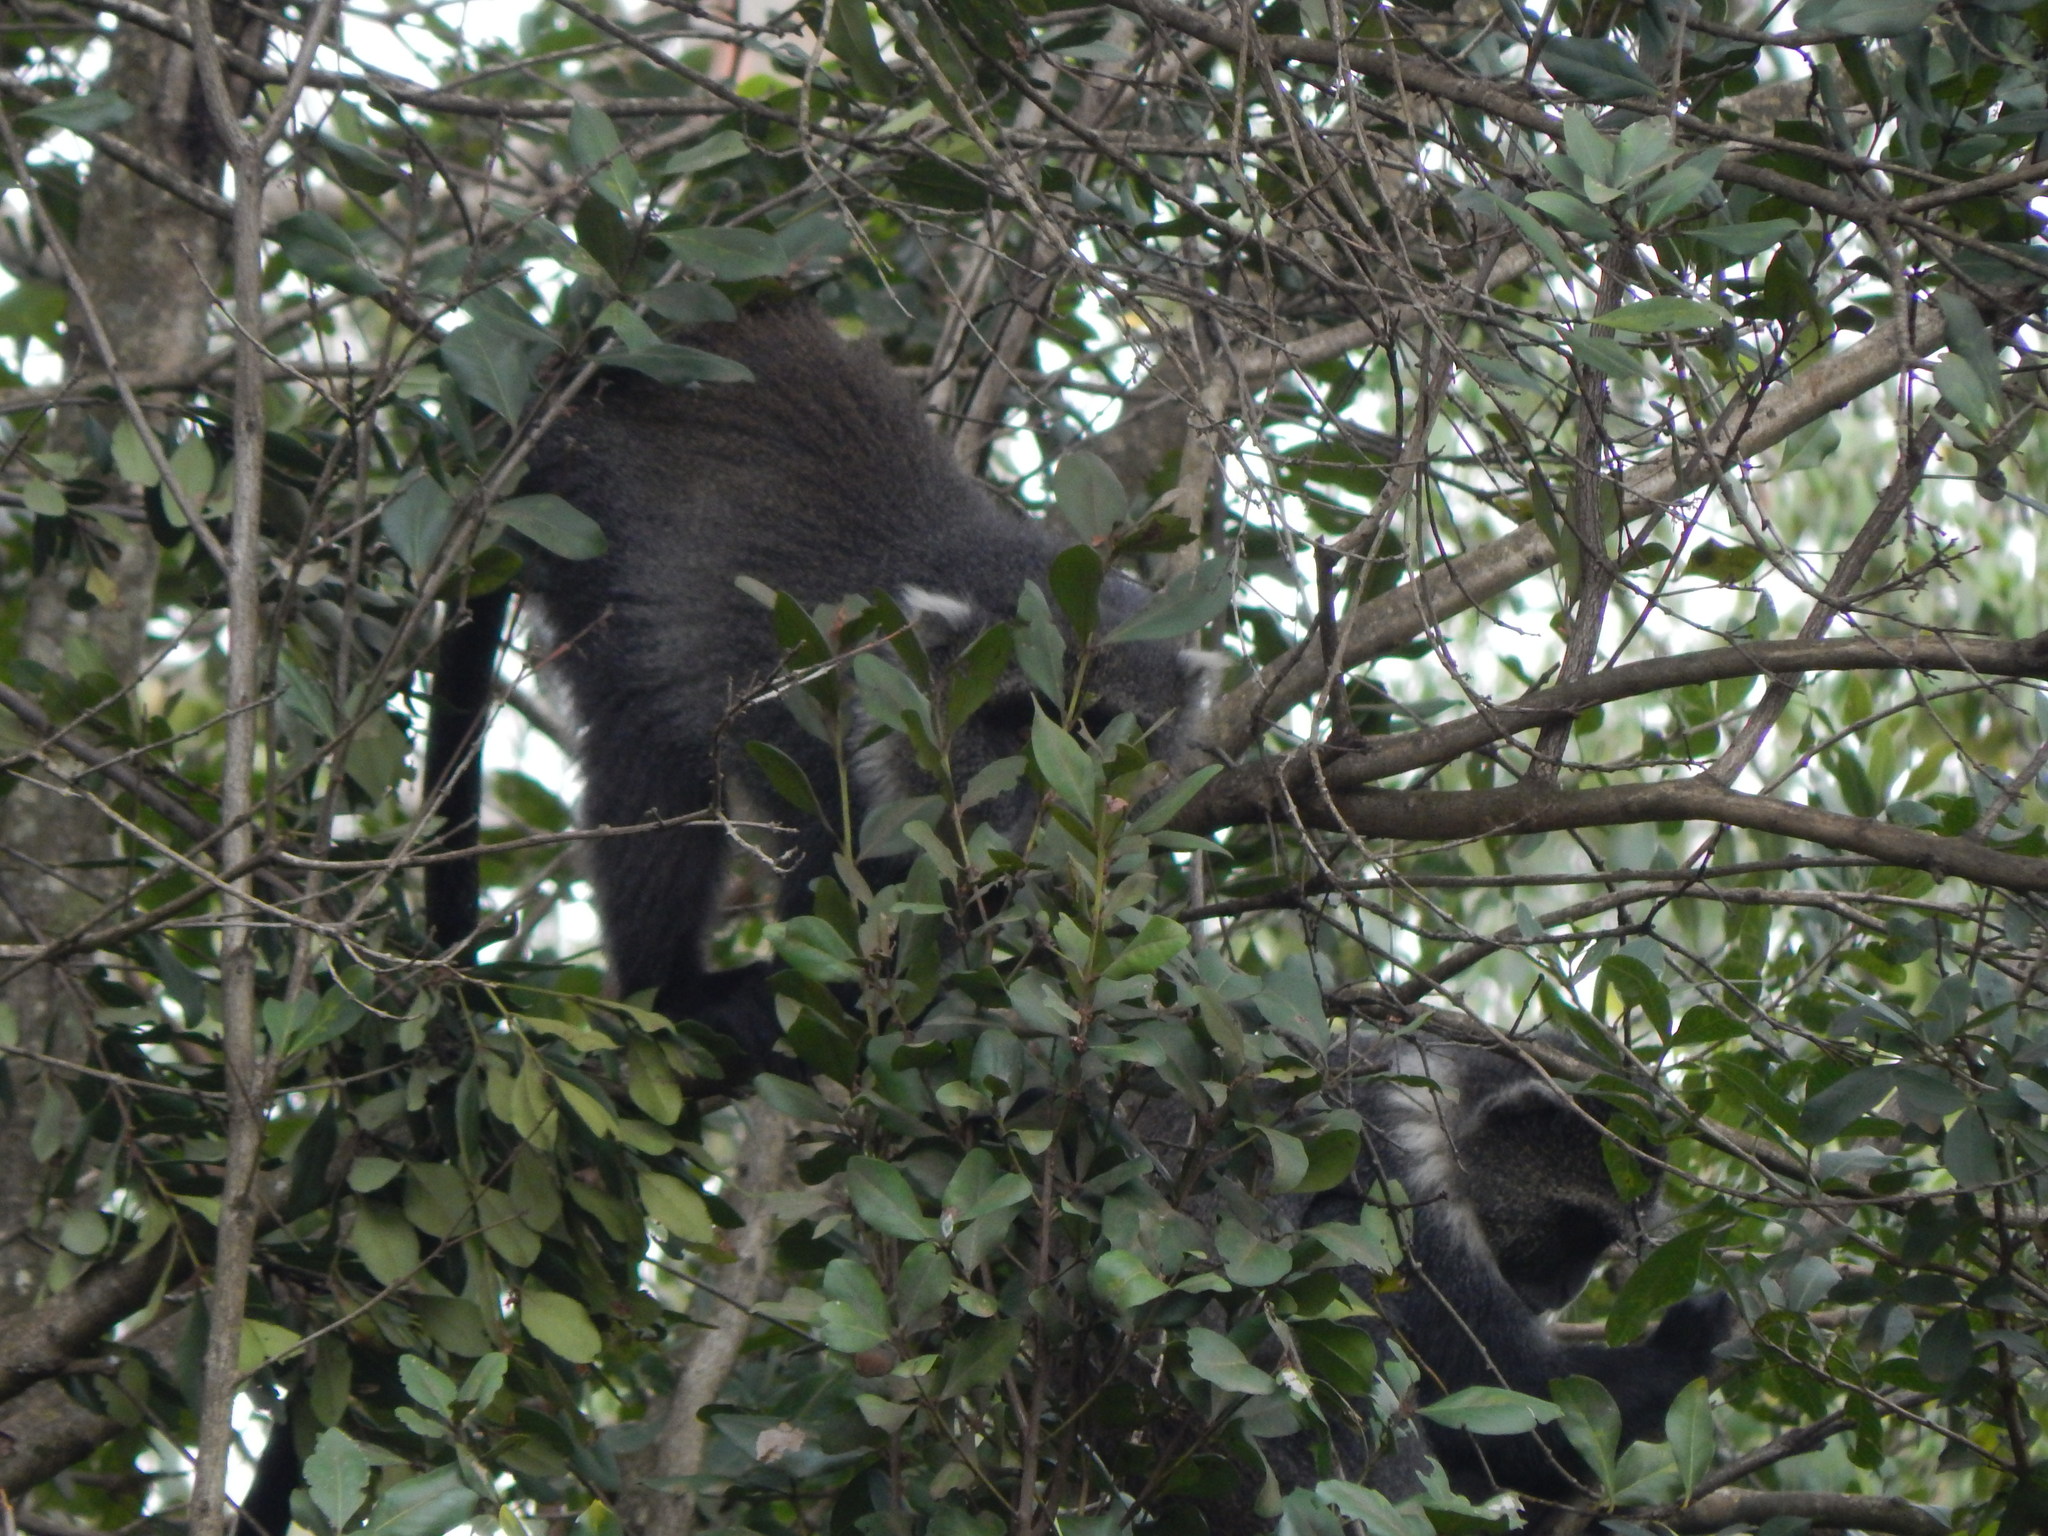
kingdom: Animalia
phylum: Chordata
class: Mammalia
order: Primates
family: Cercopithecidae
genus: Cercopithecus
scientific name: Cercopithecus mitis
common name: Blue monkey
